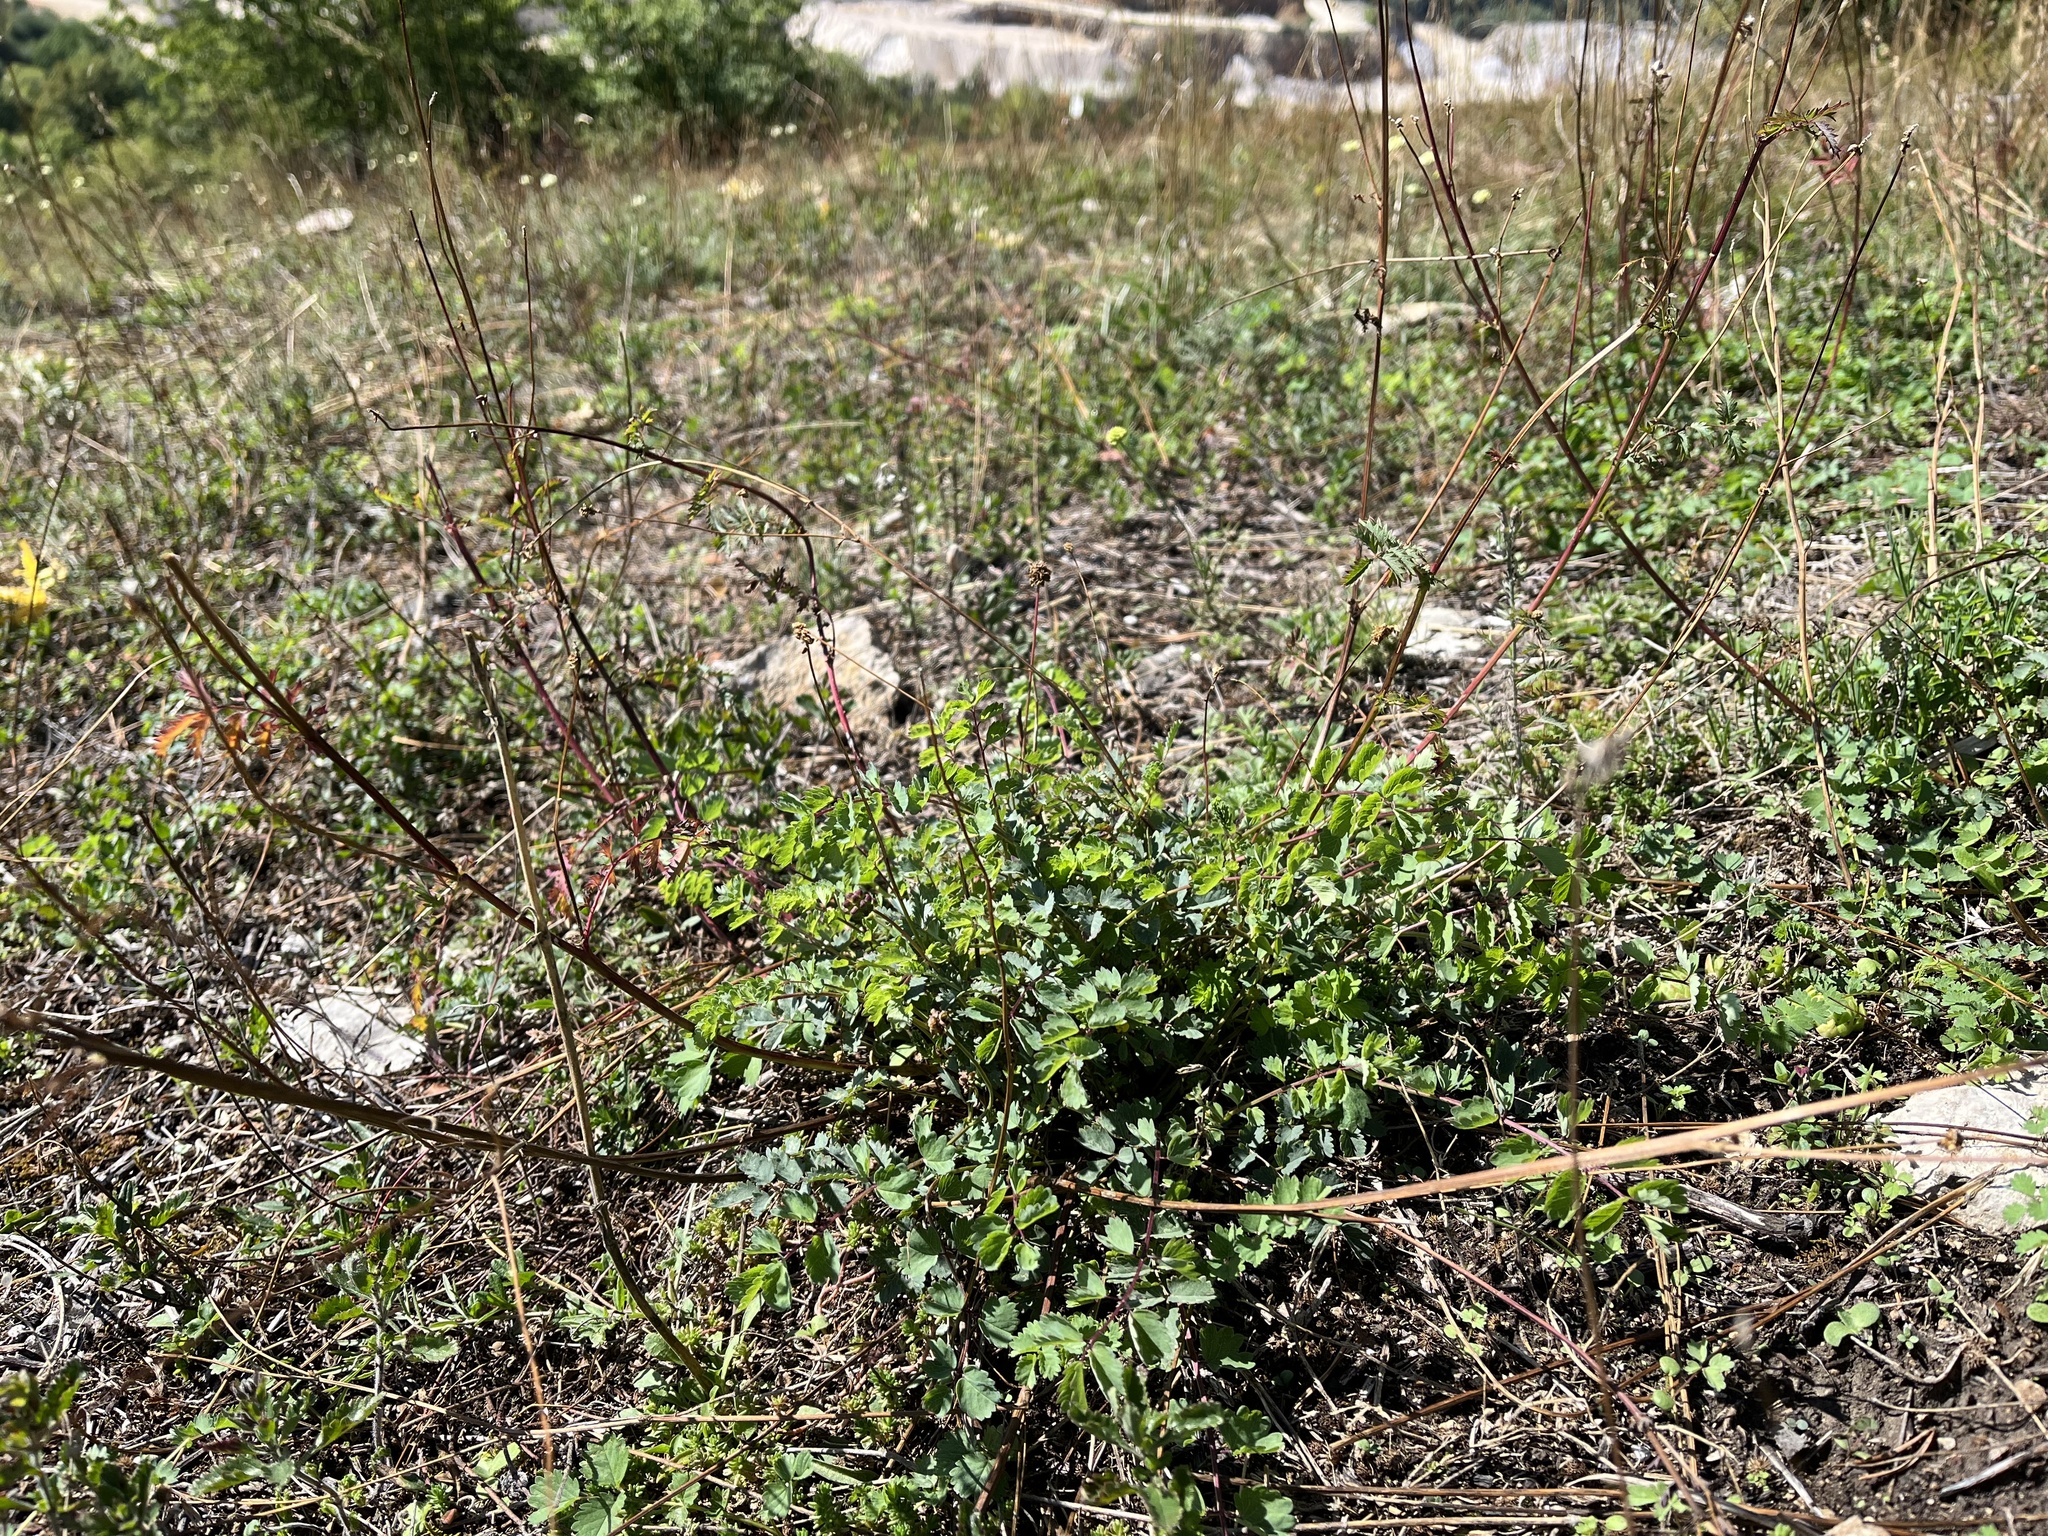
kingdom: Plantae
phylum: Tracheophyta
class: Magnoliopsida
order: Rosales
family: Rosaceae
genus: Poterium
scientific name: Poterium sanguisorba
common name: Salad burnet
